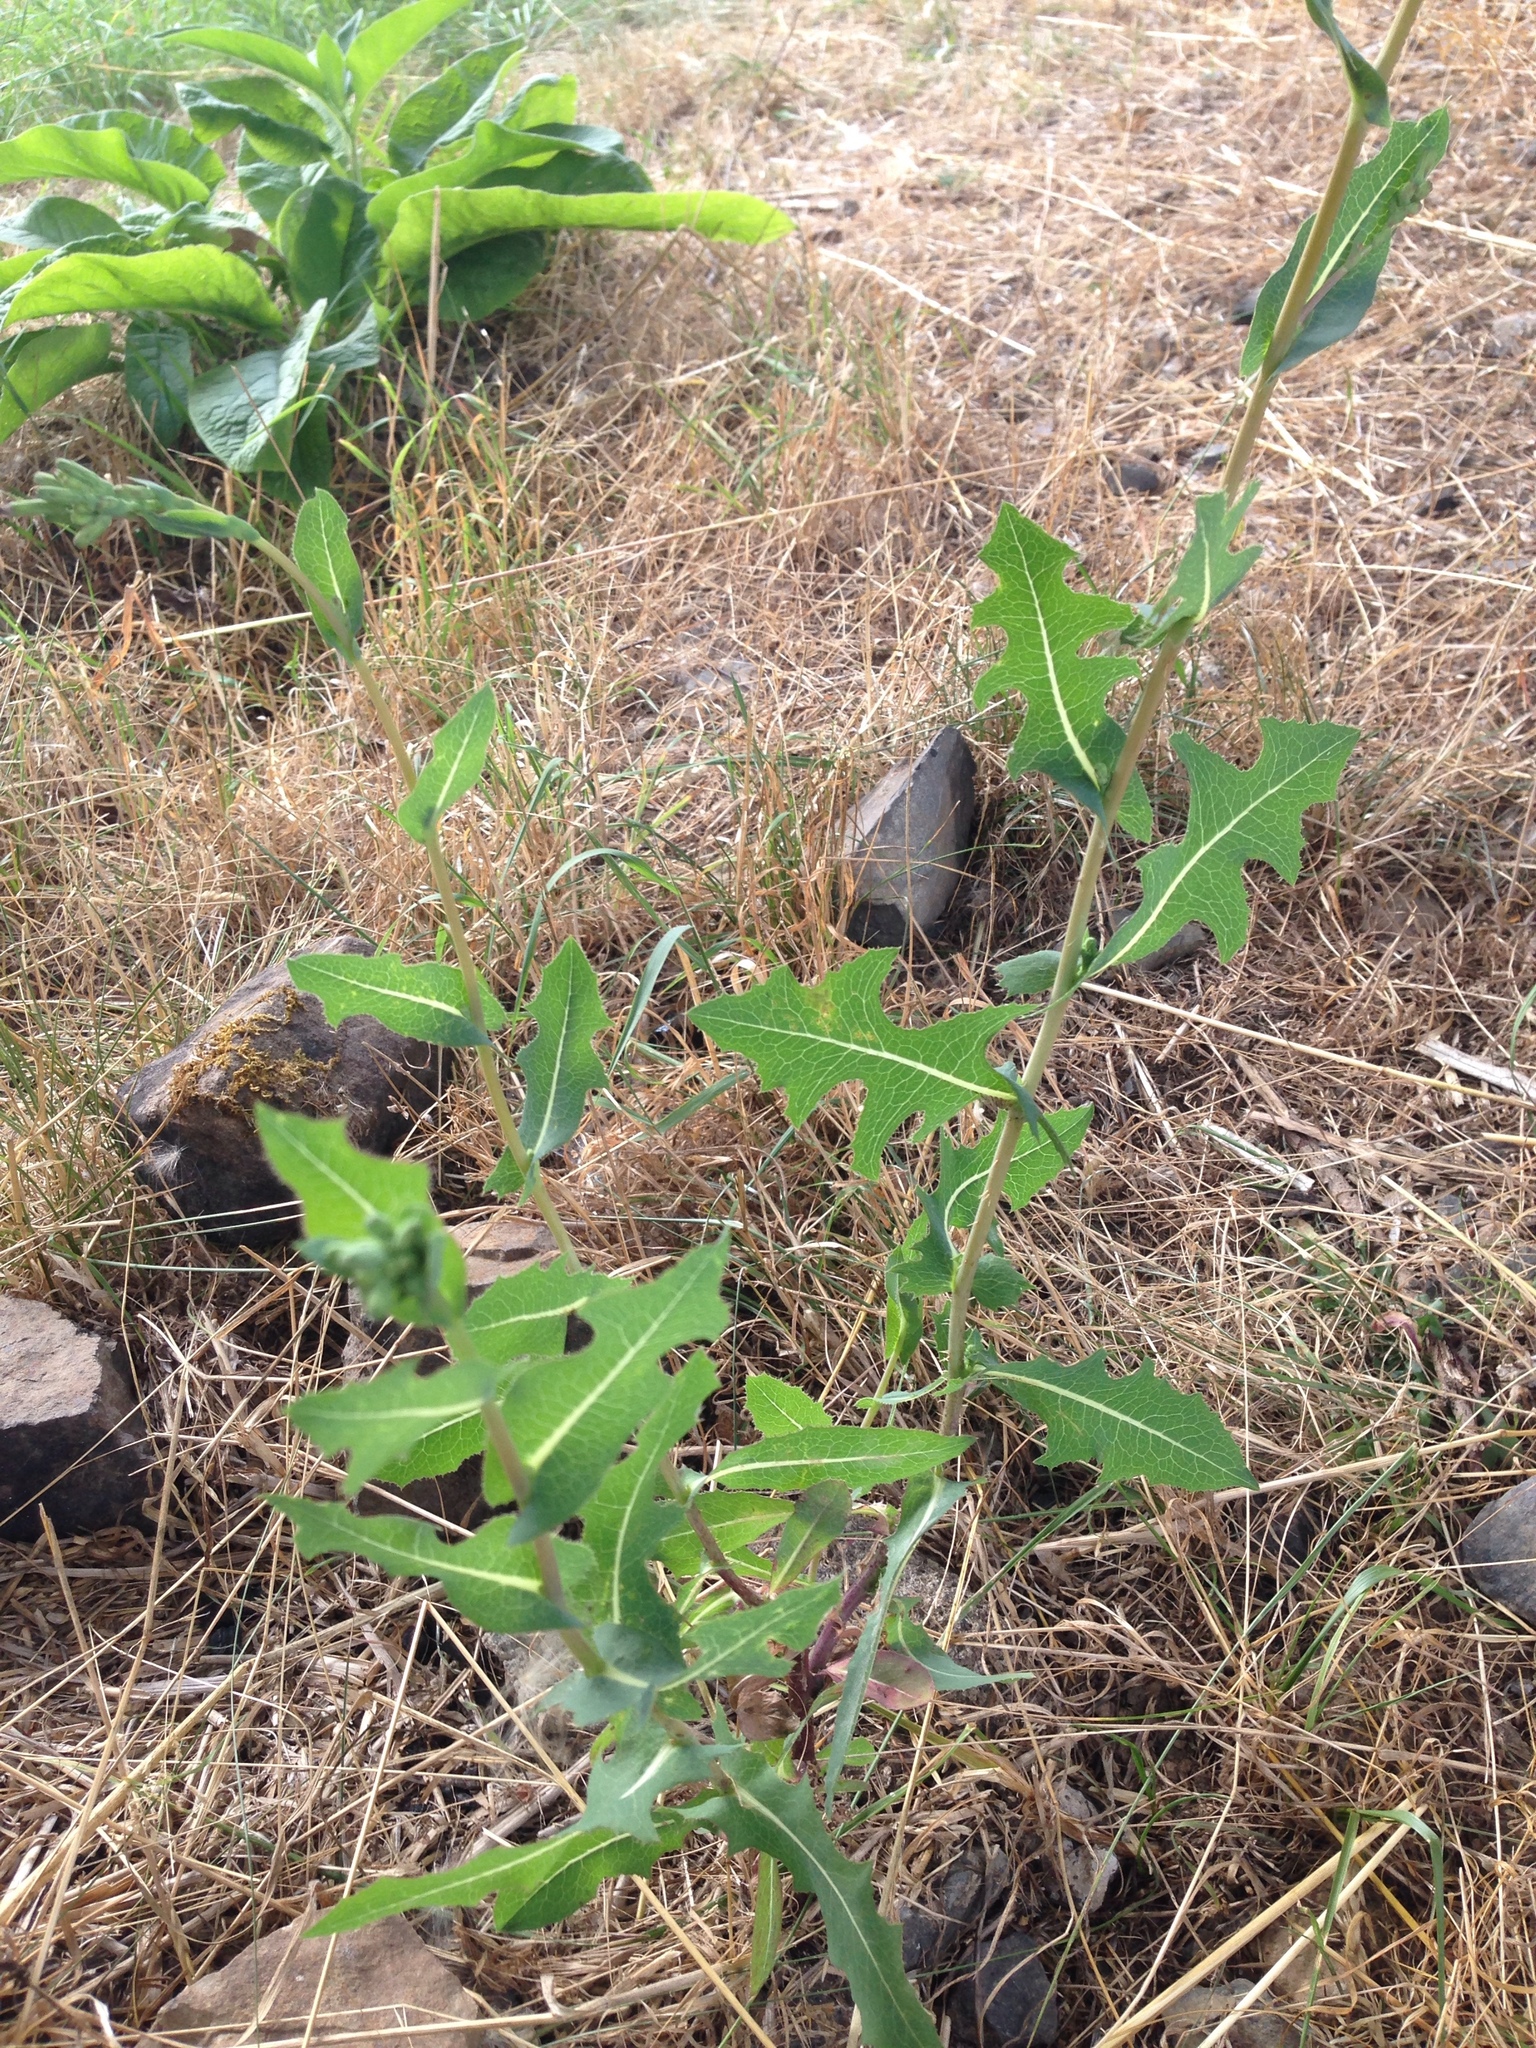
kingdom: Plantae
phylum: Tracheophyta
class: Magnoliopsida
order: Asterales
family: Asteraceae
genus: Lactuca
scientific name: Lactuca serriola
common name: Prickly lettuce
